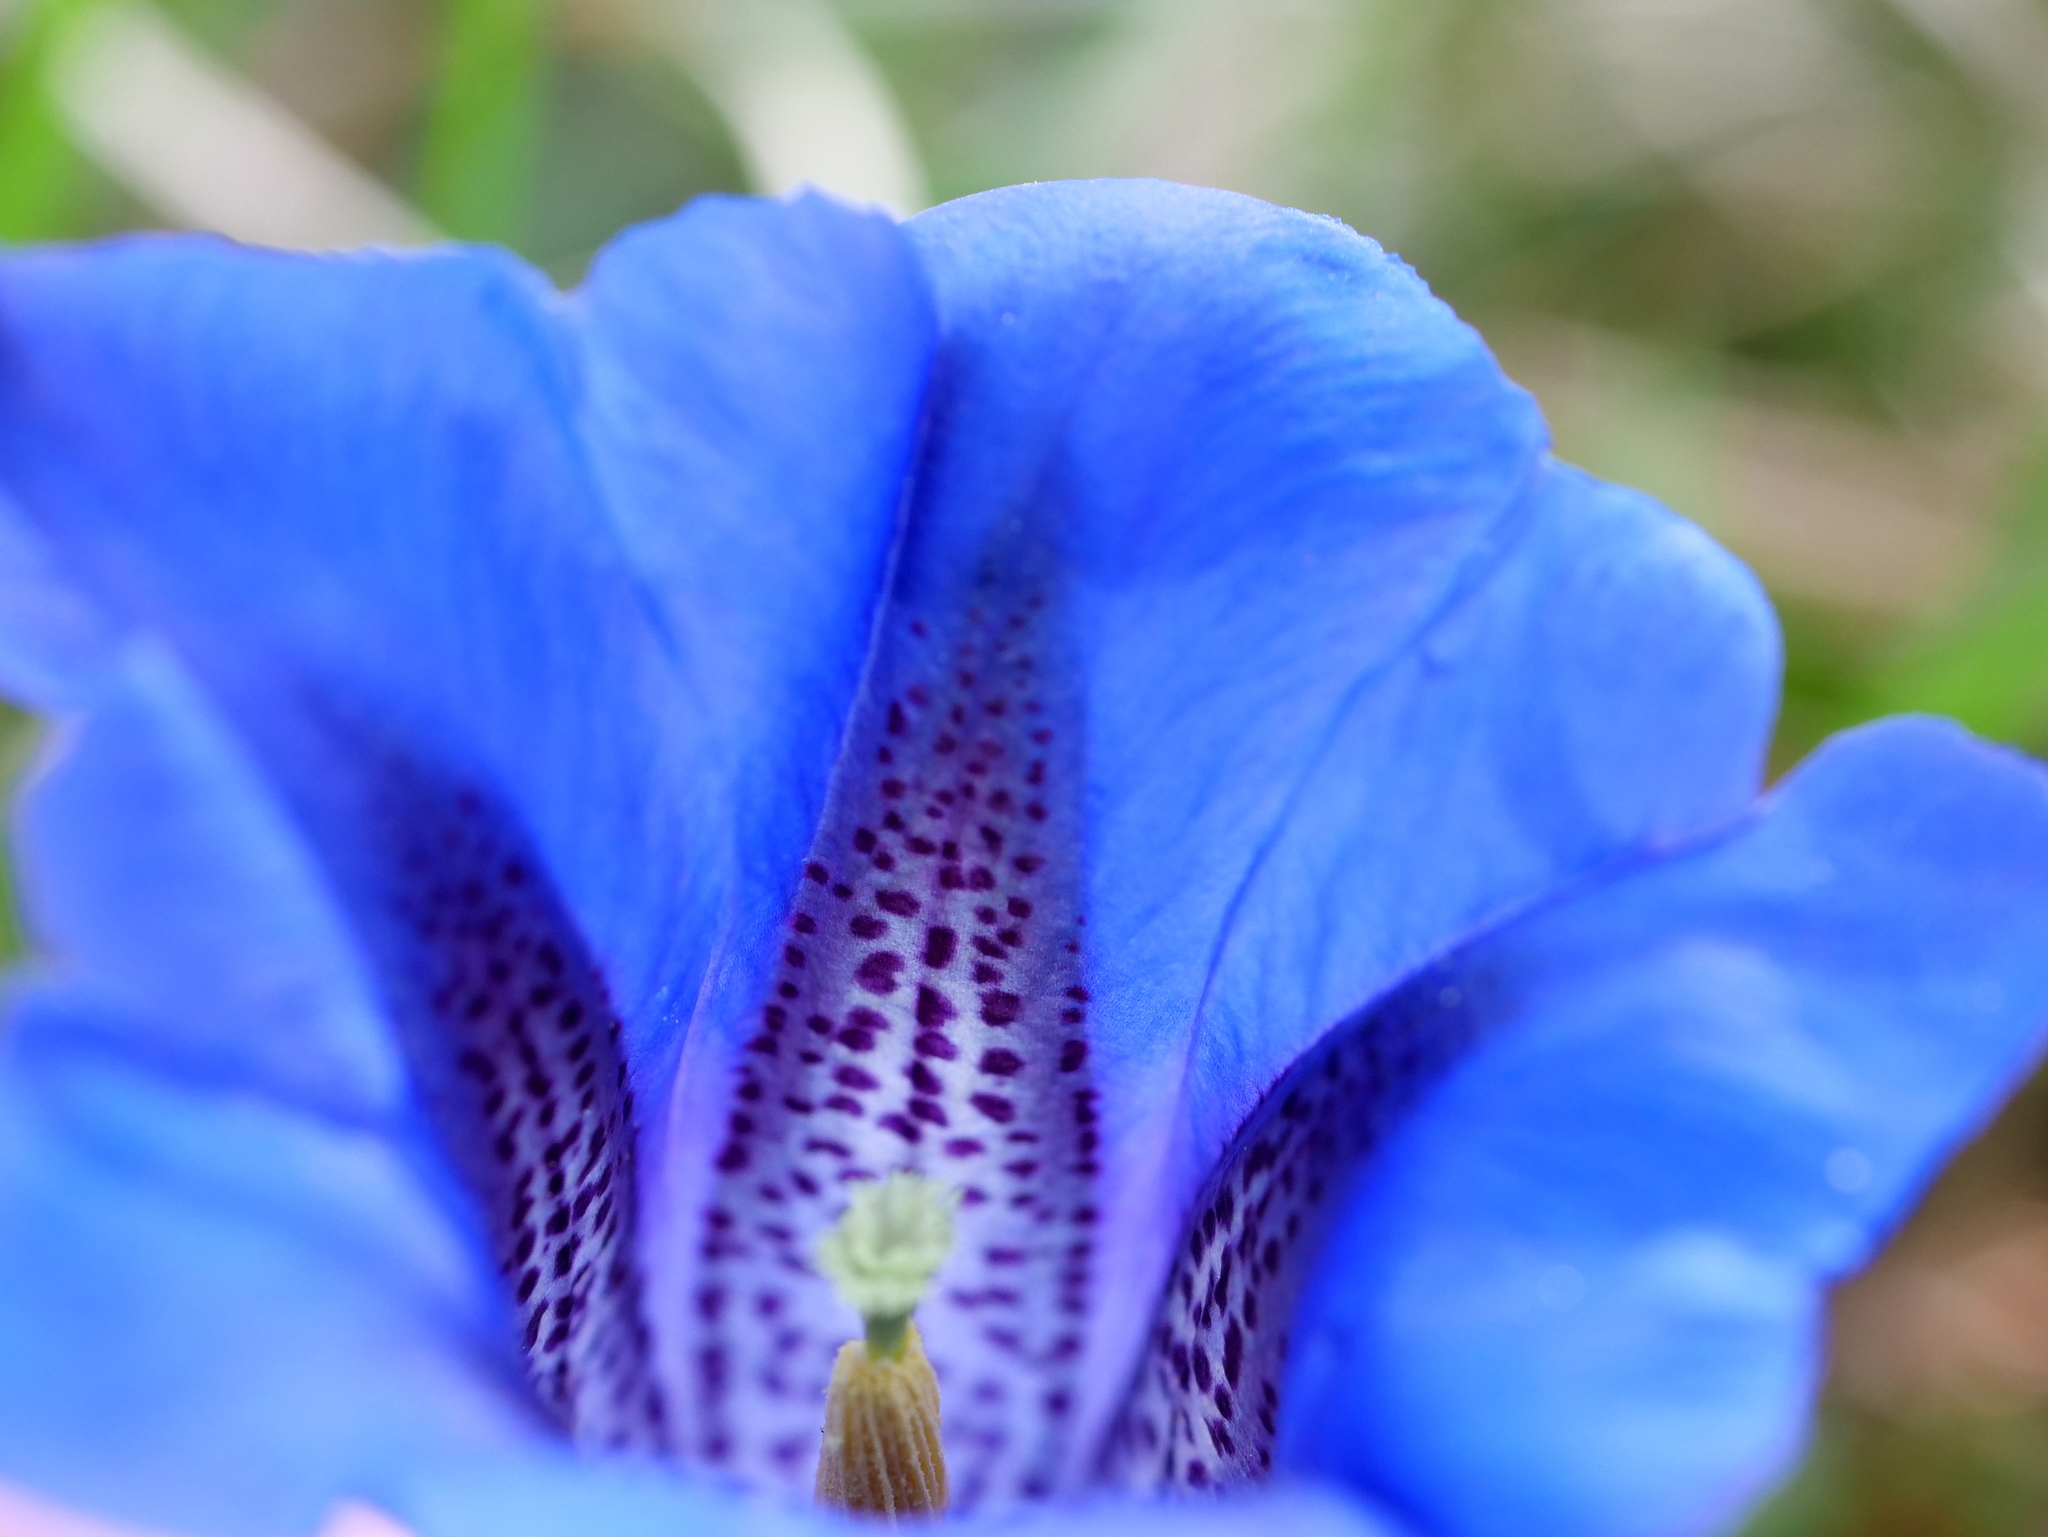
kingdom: Plantae
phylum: Tracheophyta
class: Magnoliopsida
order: Gentianales
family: Gentianaceae
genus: Gentiana
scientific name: Gentiana clusii
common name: Trumpet gentian
